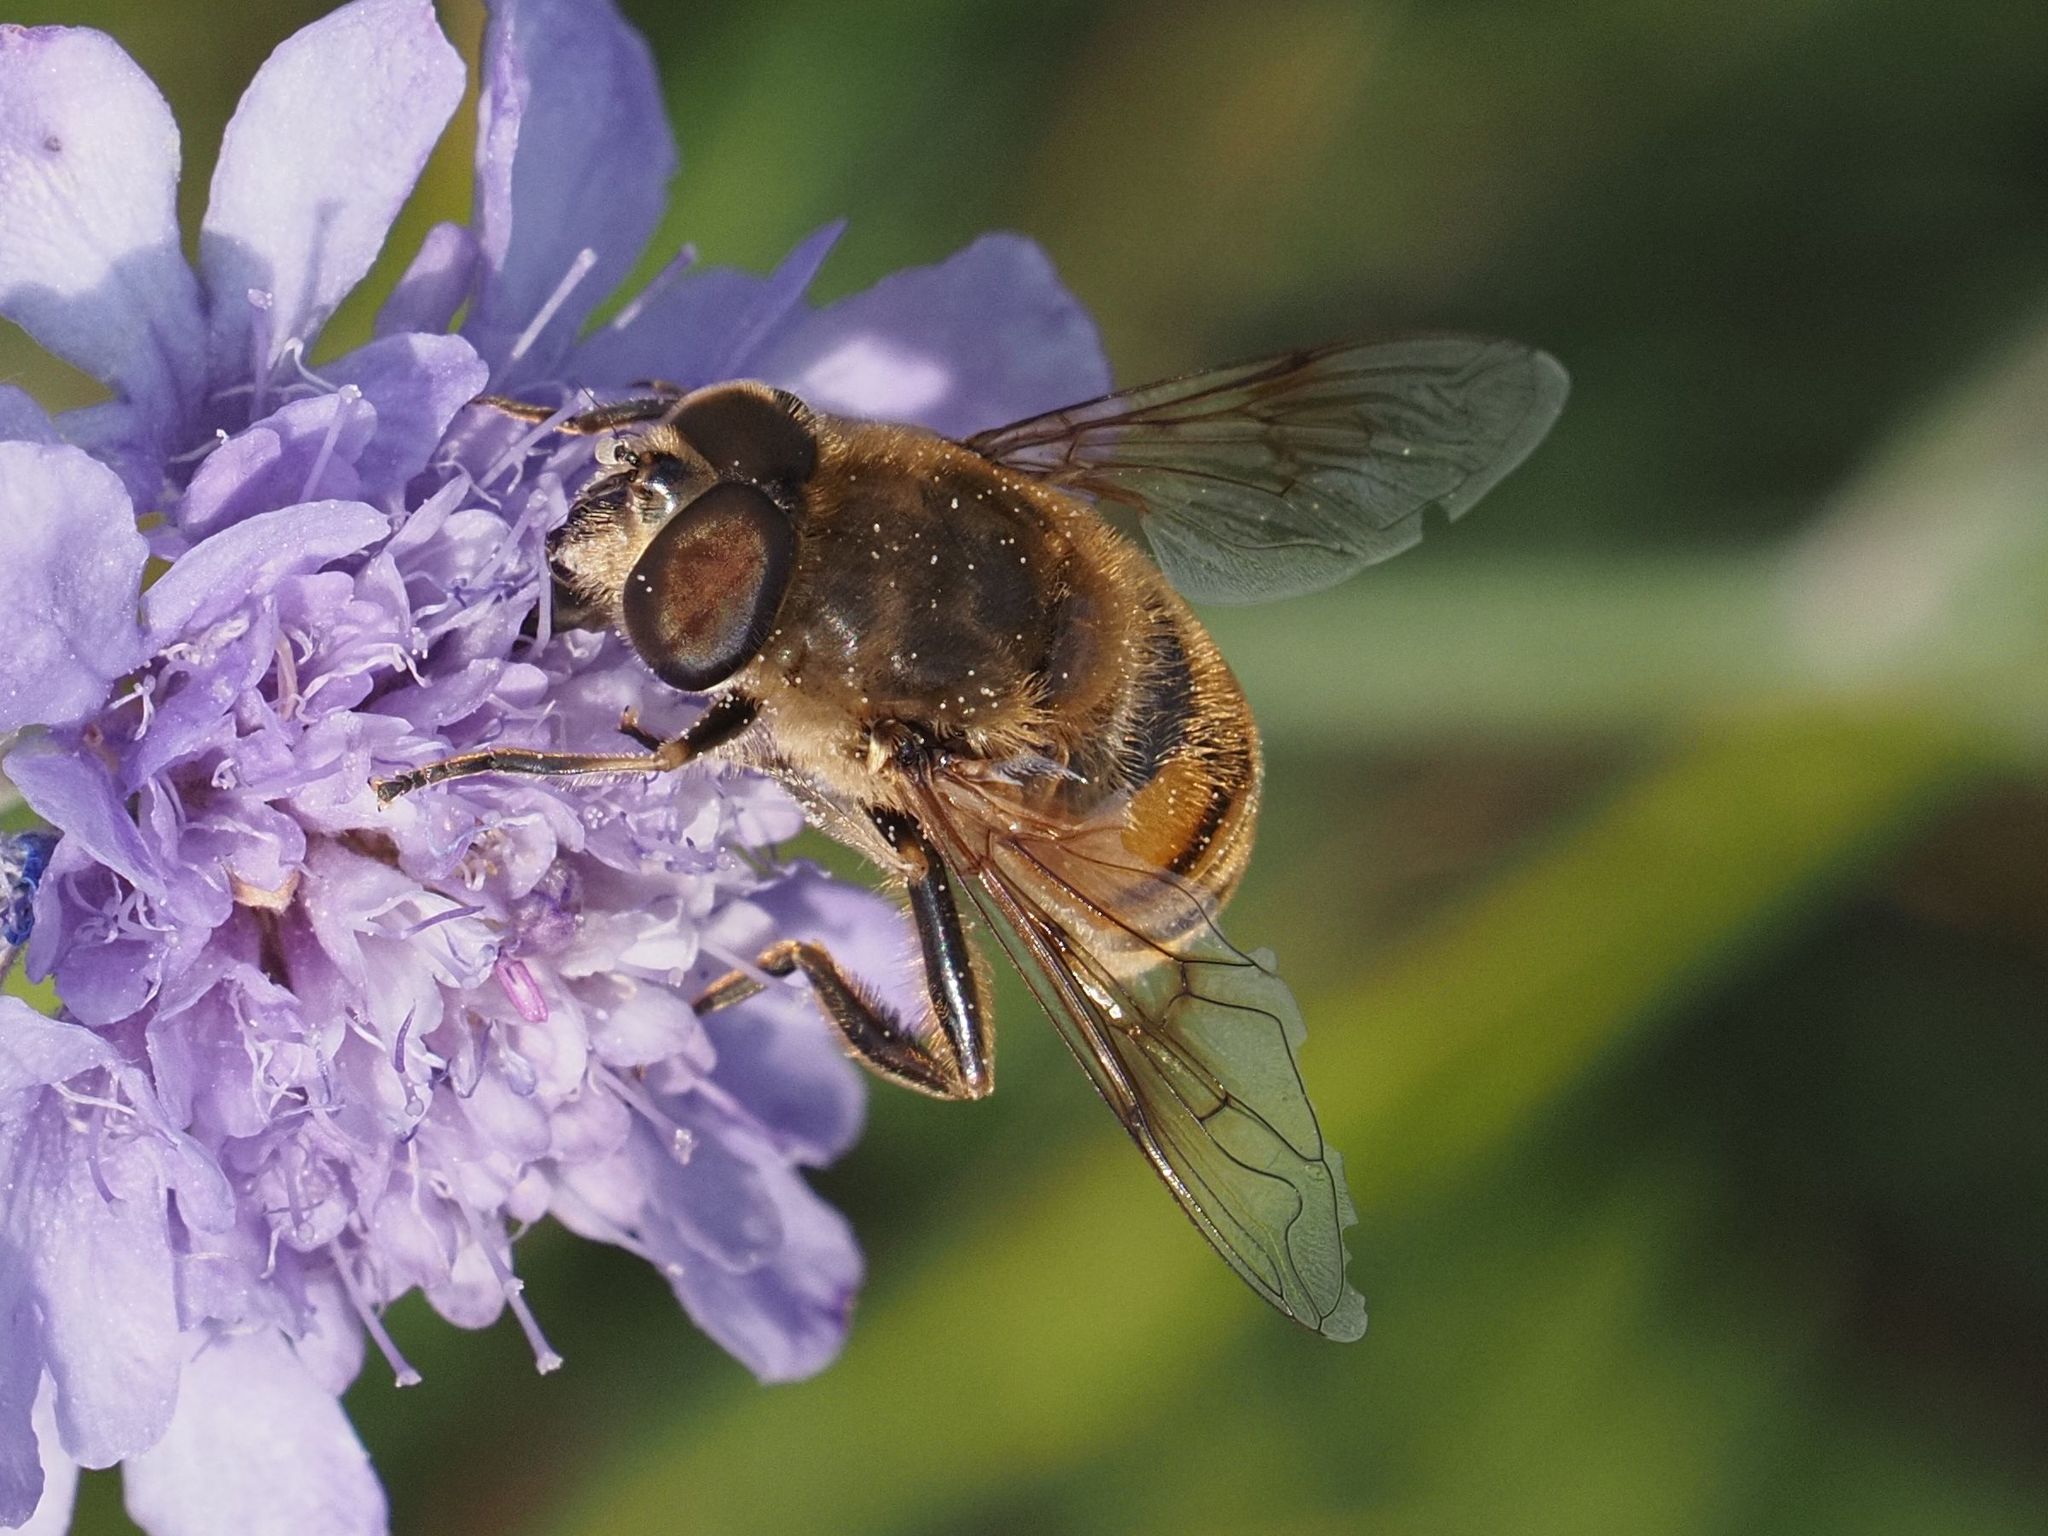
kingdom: Animalia
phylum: Arthropoda
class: Insecta
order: Diptera
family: Syrphidae
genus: Eristalis
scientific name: Eristalis tenax
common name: Drone fly
